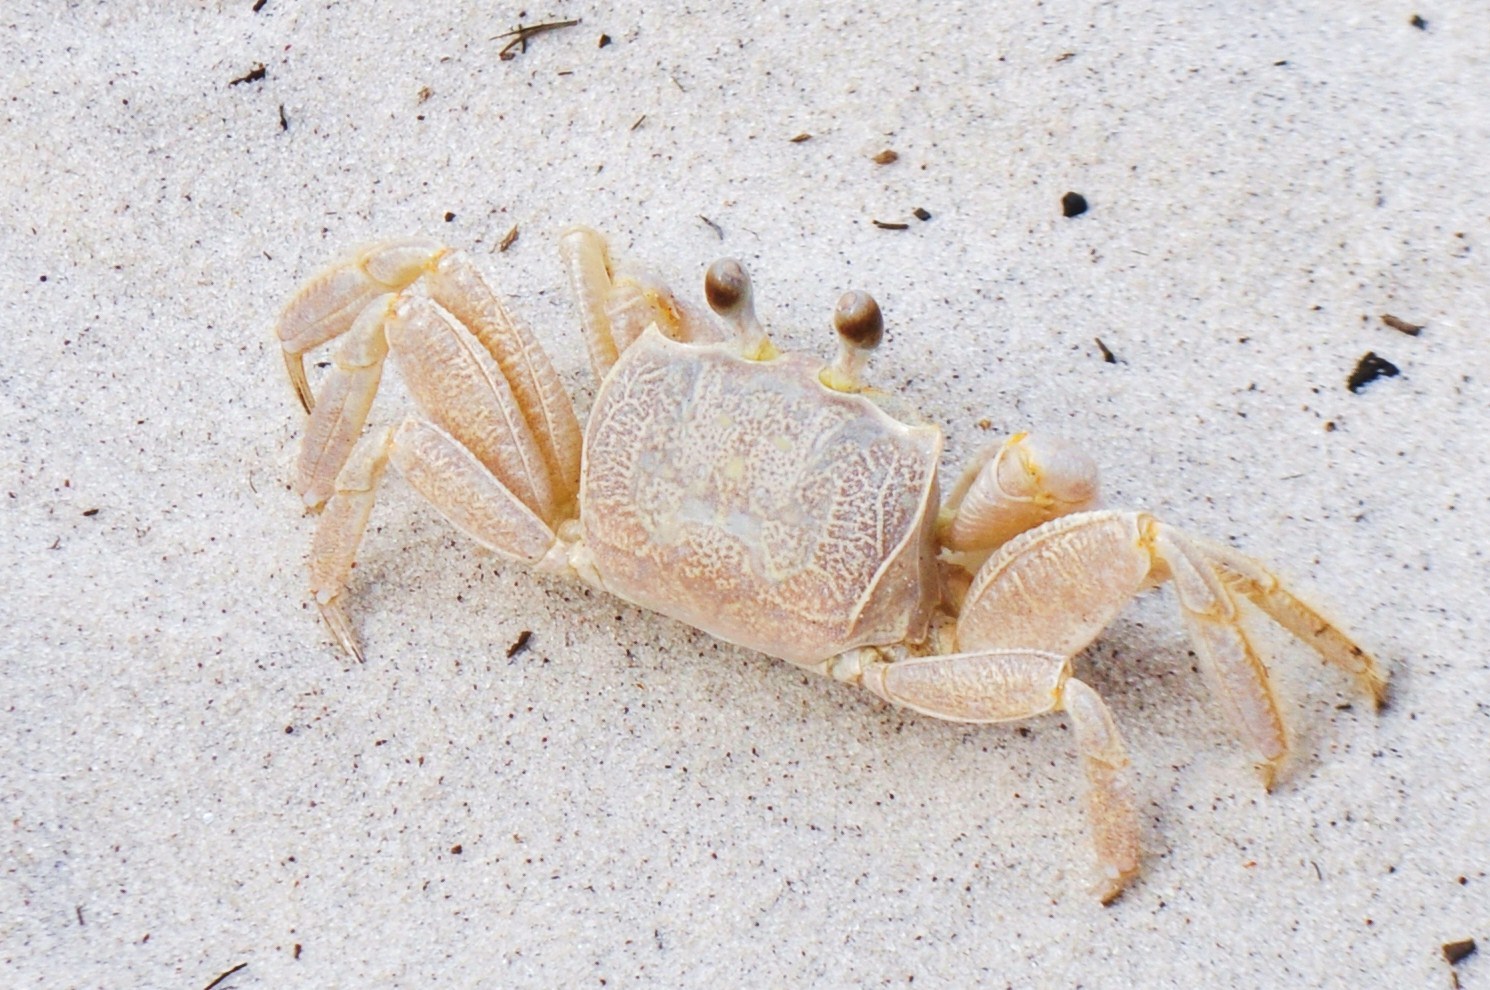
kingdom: Animalia
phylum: Arthropoda
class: Malacostraca
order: Decapoda
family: Ocypodidae
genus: Ocypode
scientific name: Ocypode quadrata
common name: Ghost crab
